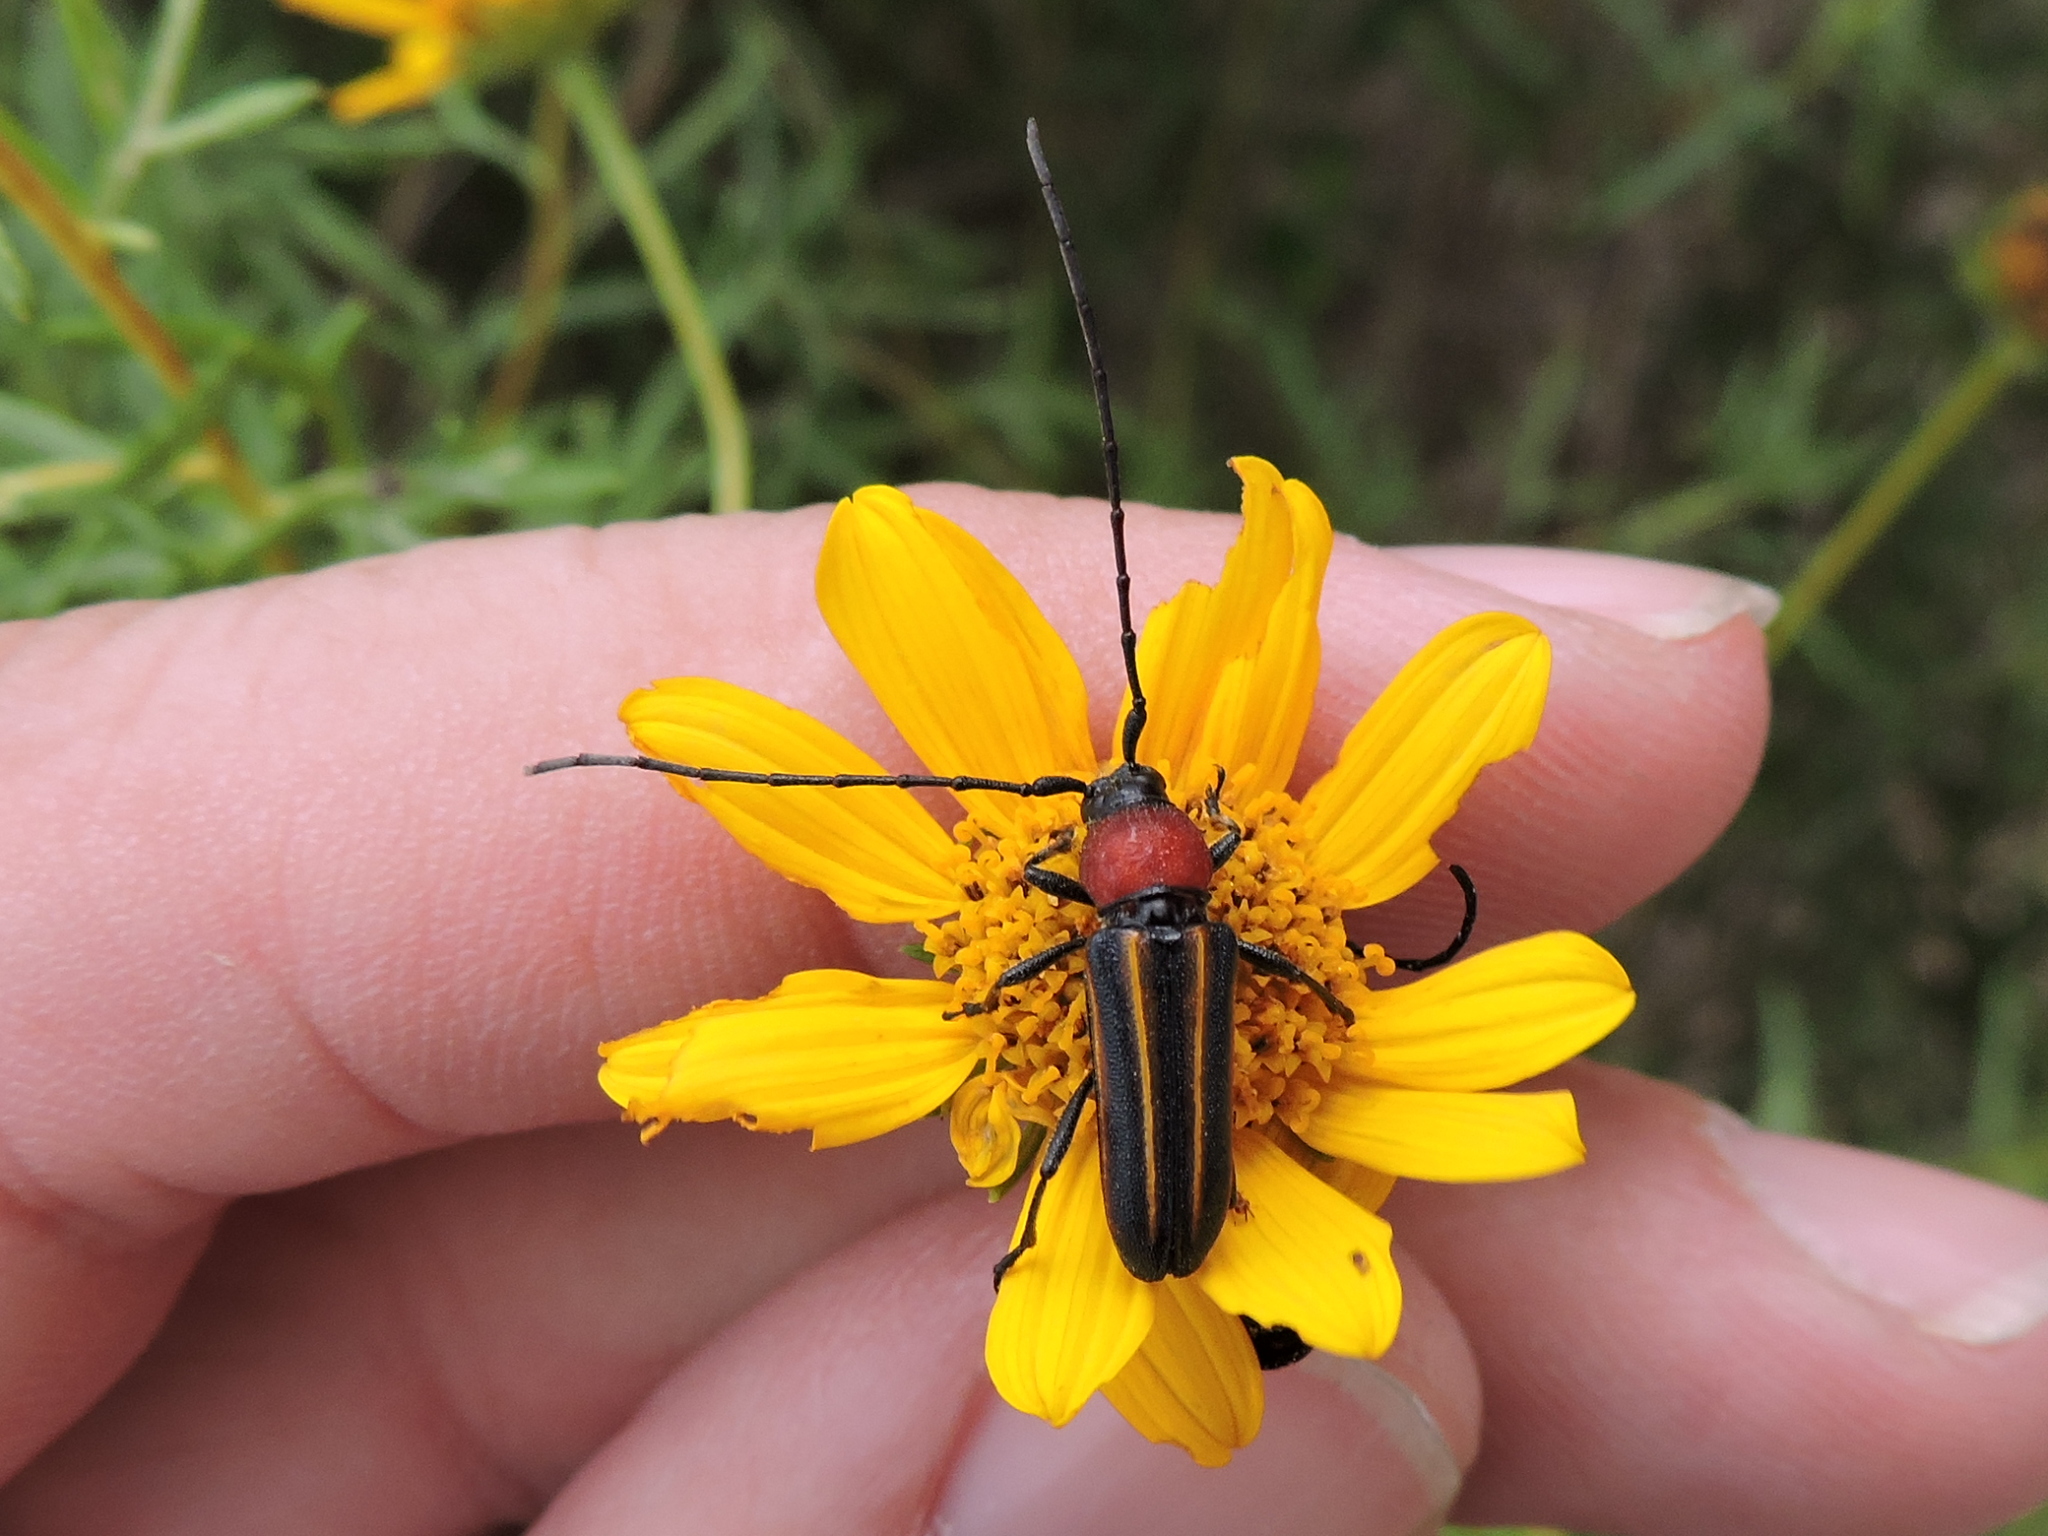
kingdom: Animalia
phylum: Arthropoda
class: Insecta
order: Coleoptera
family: Cerambycidae
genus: Mannophorus
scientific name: Mannophorus laetus
